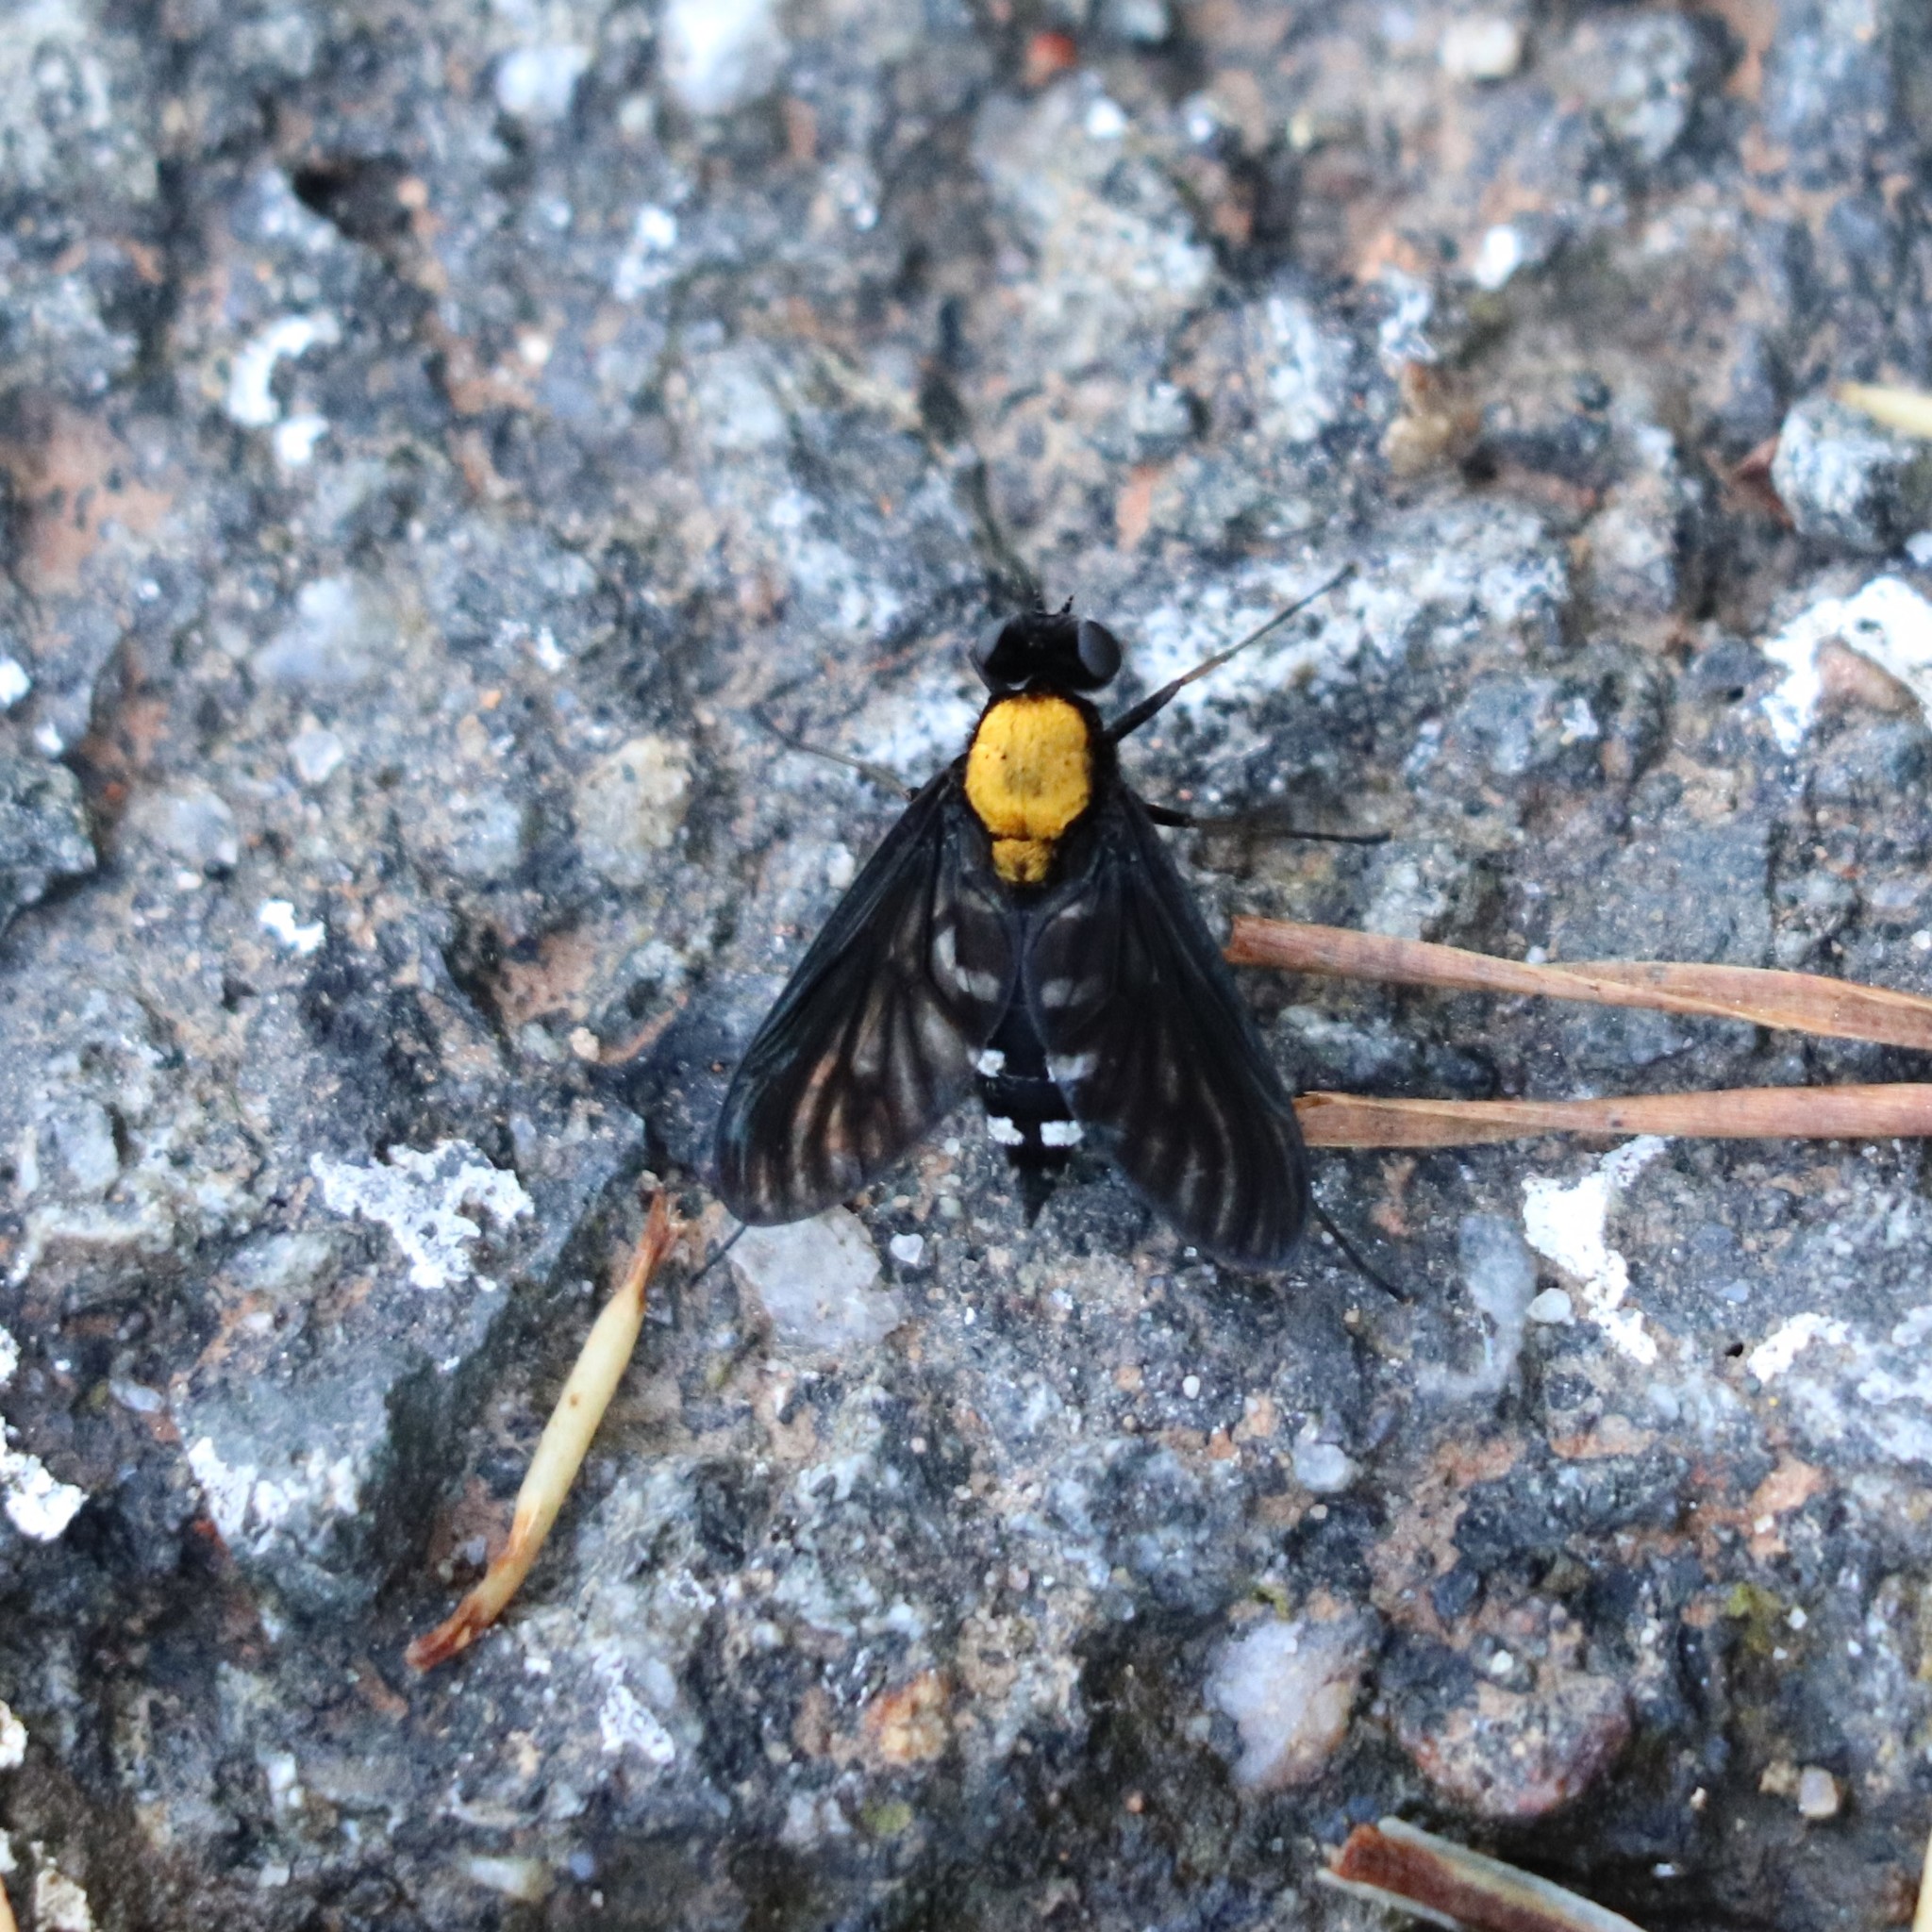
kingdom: Animalia
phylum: Arthropoda
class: Insecta
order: Diptera
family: Rhagionidae
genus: Chrysopilus
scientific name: Chrysopilus thoracicus
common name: Golden-backed snipe fly
